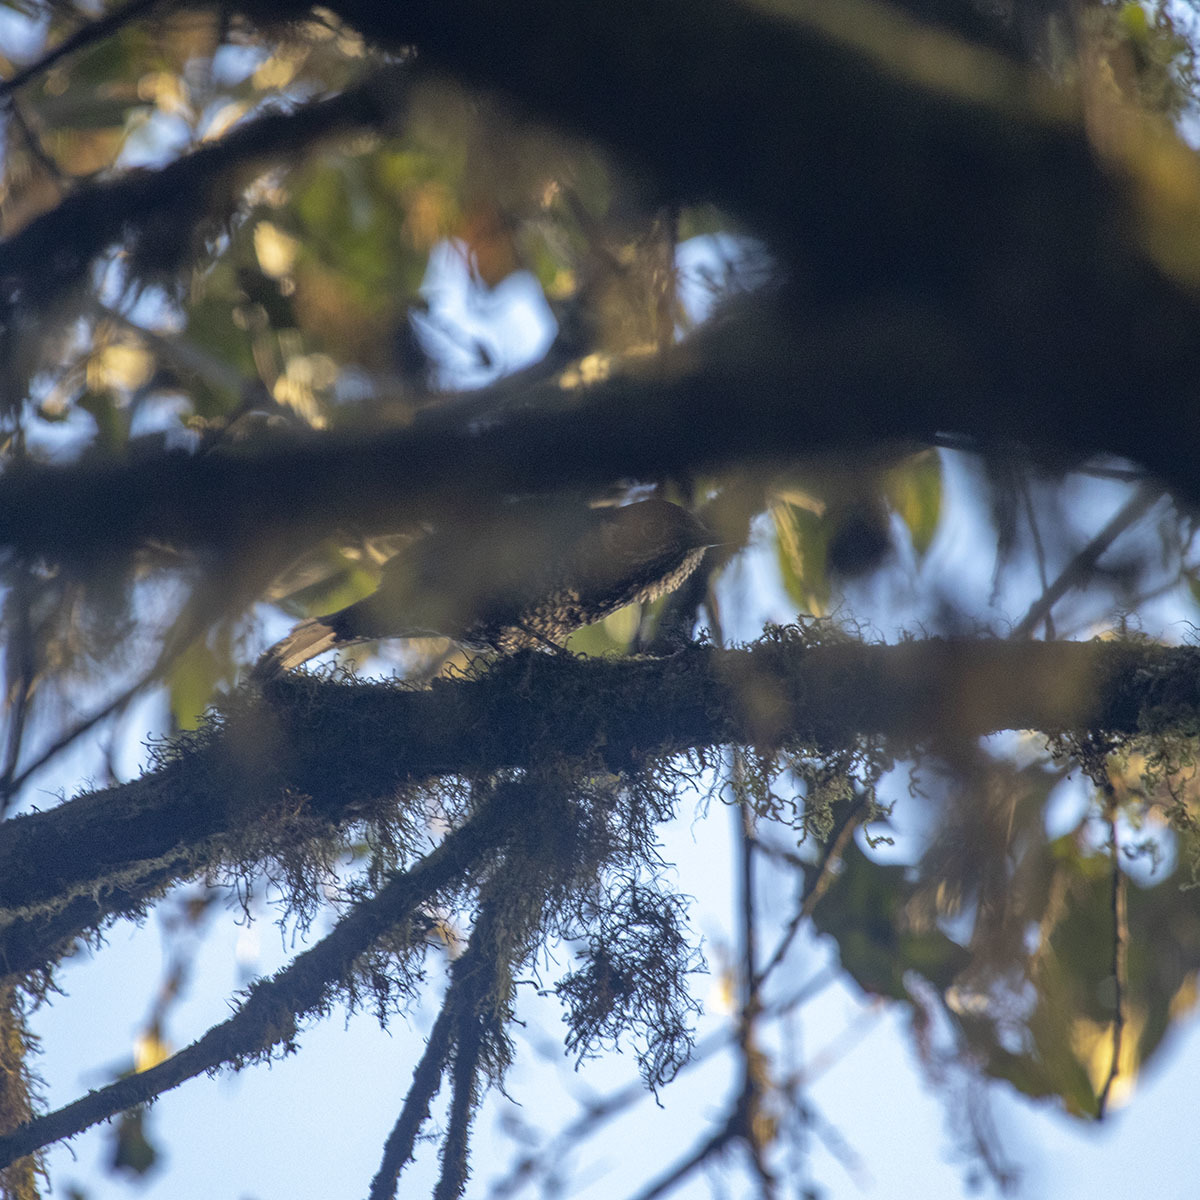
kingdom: Animalia
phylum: Chordata
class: Aves
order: Passeriformes
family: Muscicapidae
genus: Monticola
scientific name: Monticola rufiventris
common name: Chestnut-bellied rock thrush
